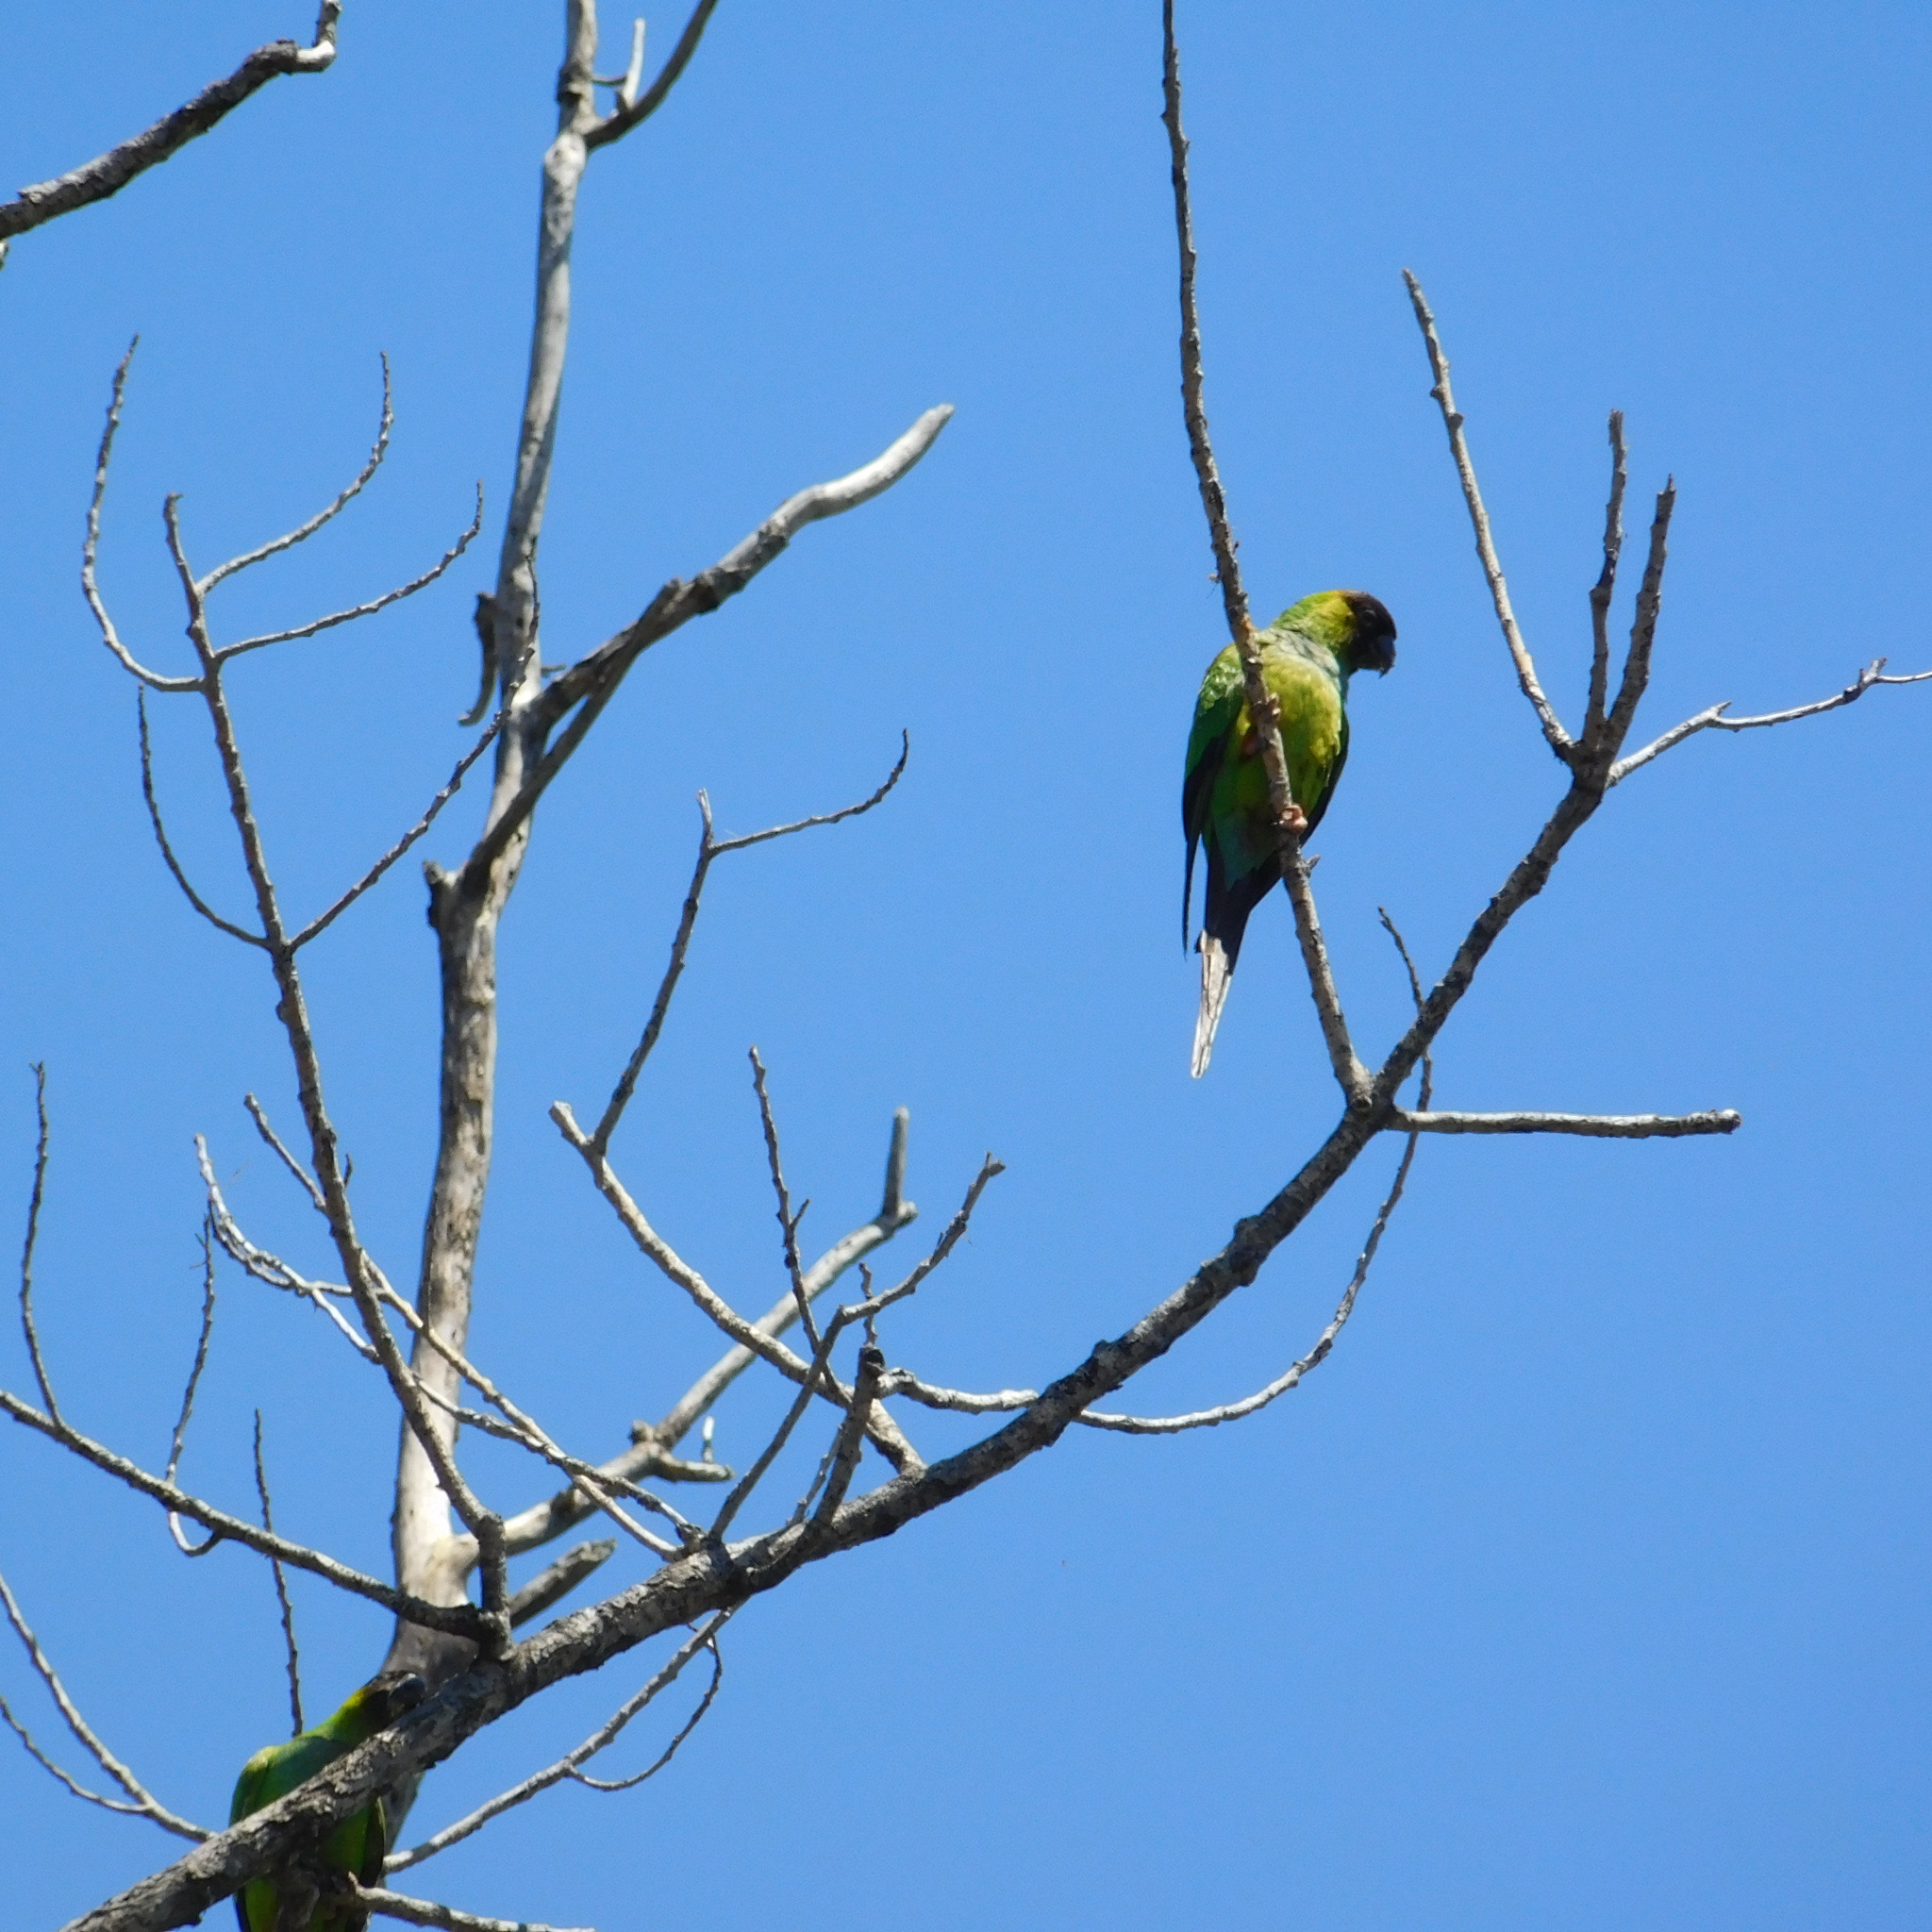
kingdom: Animalia
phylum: Chordata
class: Aves
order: Psittaciformes
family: Psittacidae
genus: Nandayus
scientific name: Nandayus nenday
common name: Nanday parakeet
